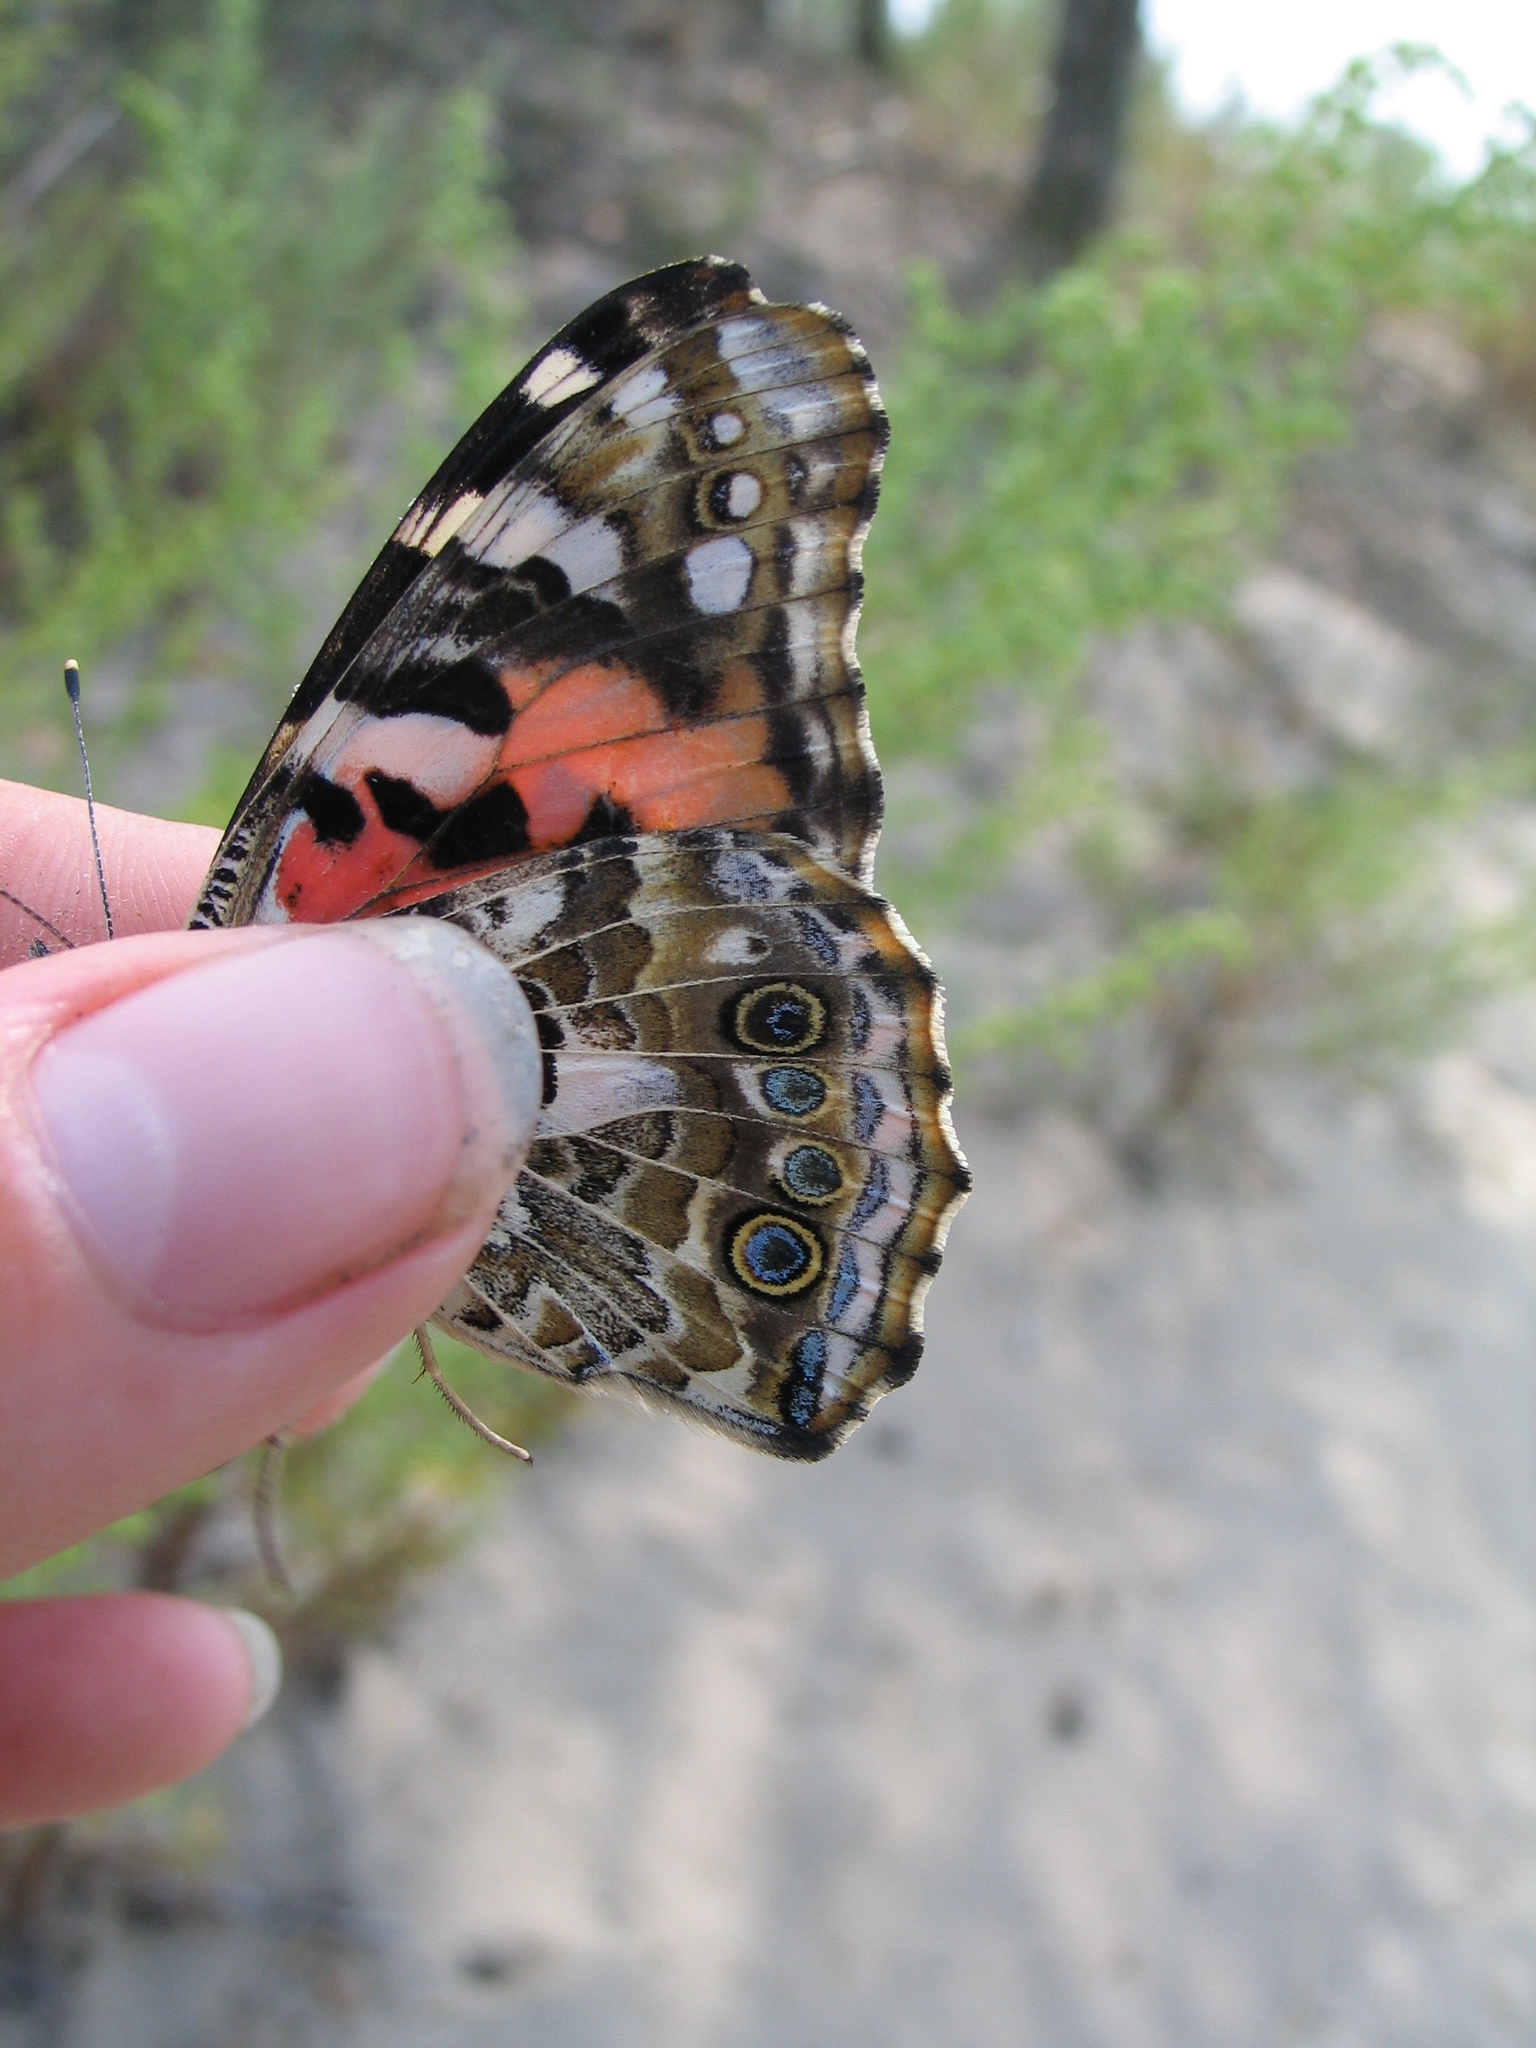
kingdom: Animalia
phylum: Arthropoda
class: Insecta
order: Lepidoptera
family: Nymphalidae
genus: Vanessa
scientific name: Vanessa cardui
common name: Painted lady
